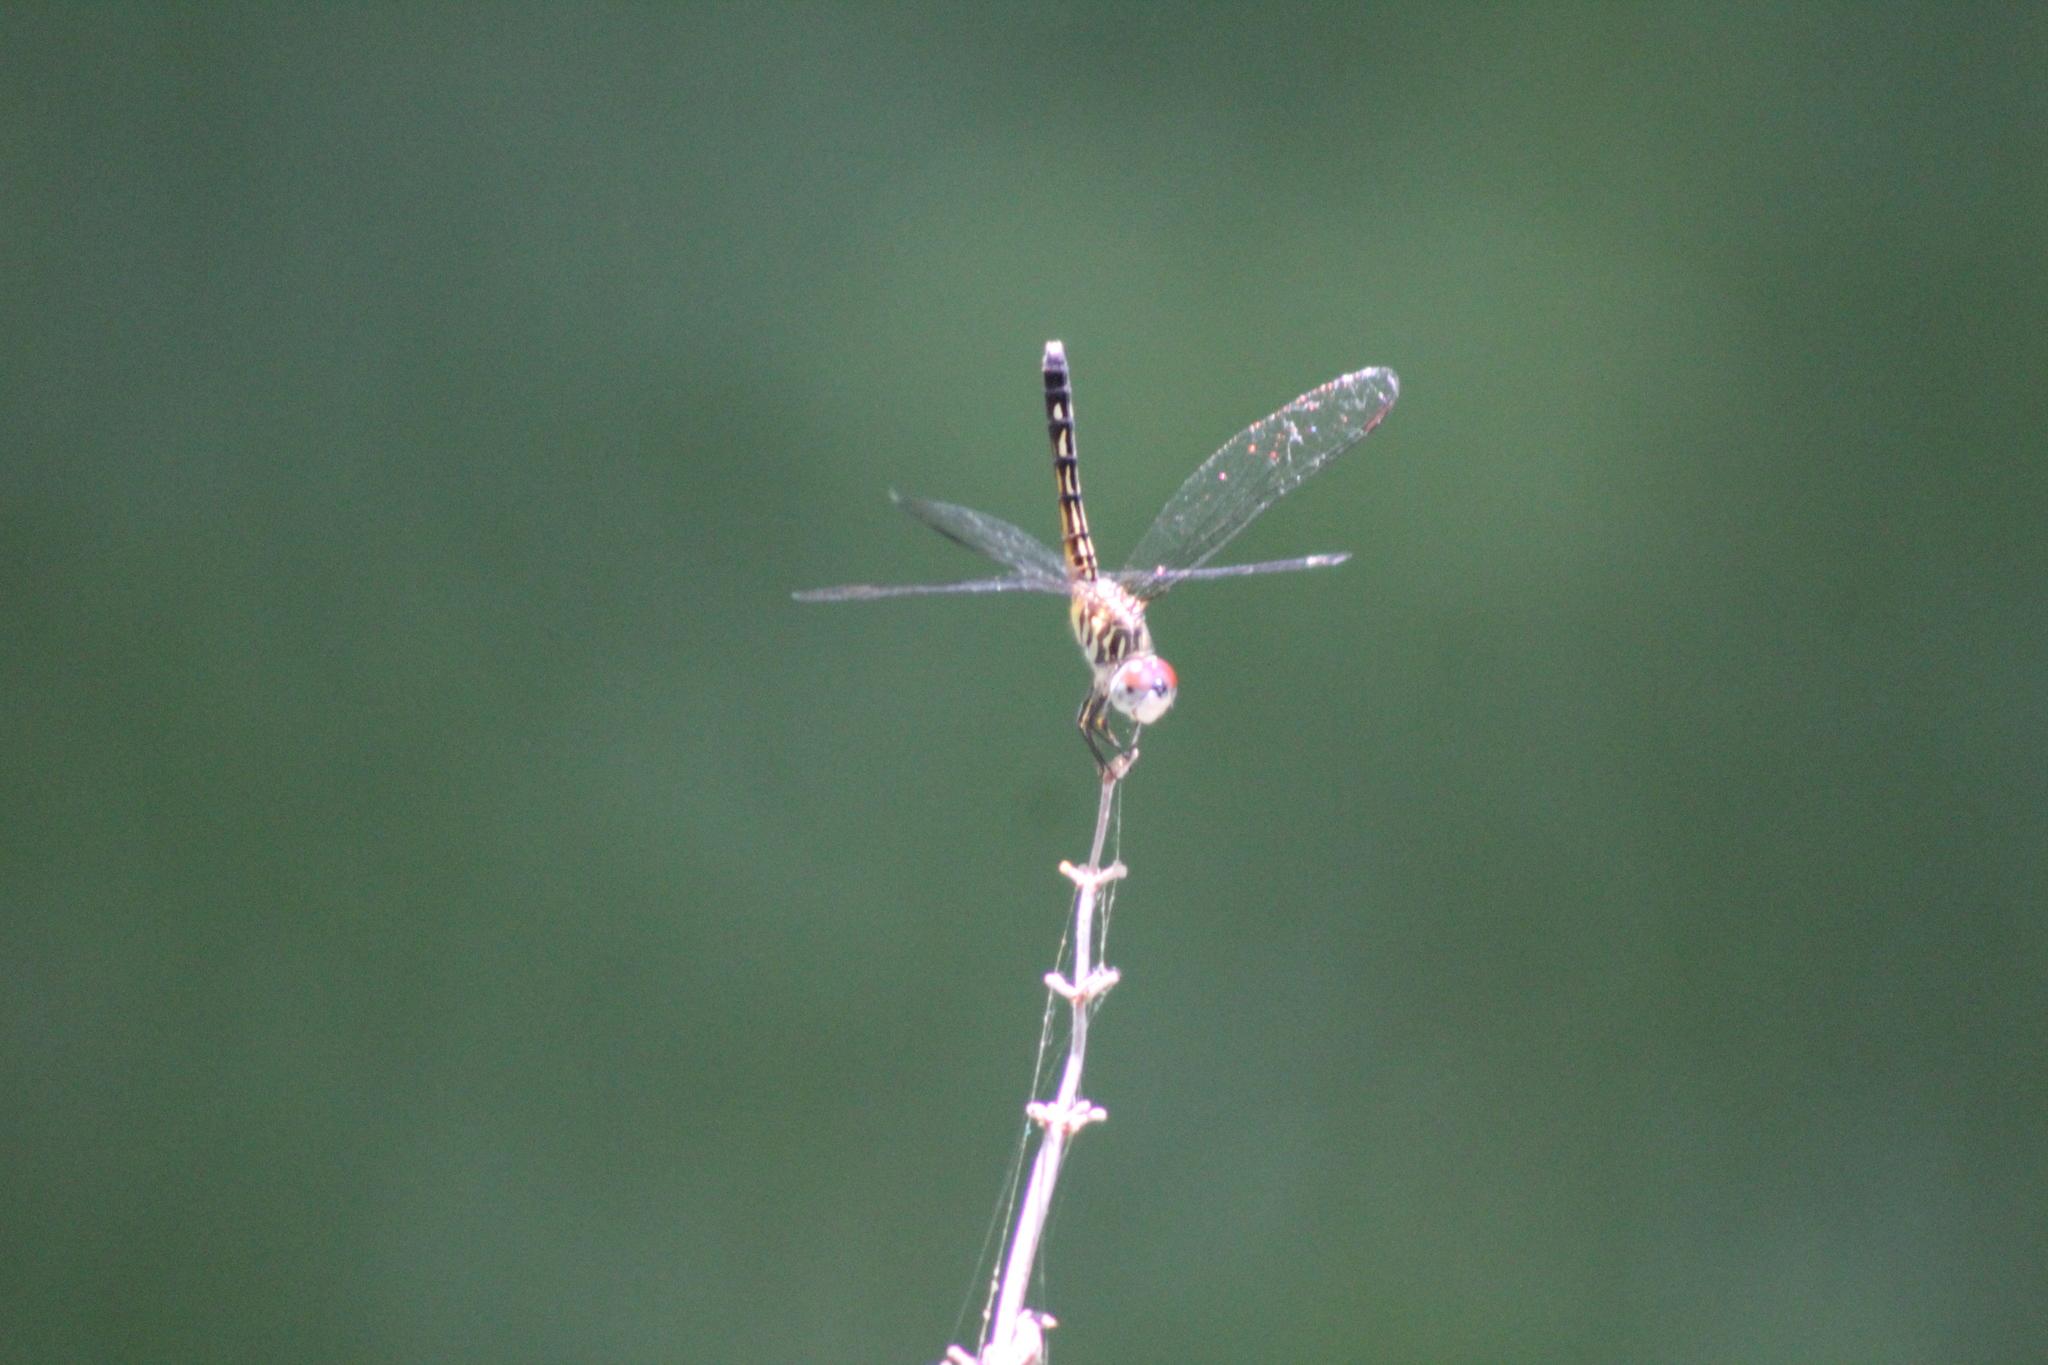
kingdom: Animalia
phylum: Arthropoda
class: Insecta
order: Odonata
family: Libellulidae
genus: Pachydiplax
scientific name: Pachydiplax longipennis
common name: Blue dasher
